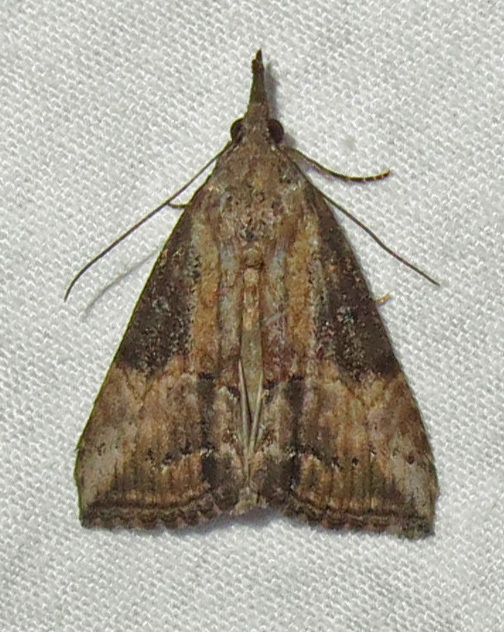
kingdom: Animalia
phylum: Arthropoda
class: Insecta
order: Lepidoptera
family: Erebidae
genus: Hypena
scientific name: Hypena scabra
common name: Green cloverworm
